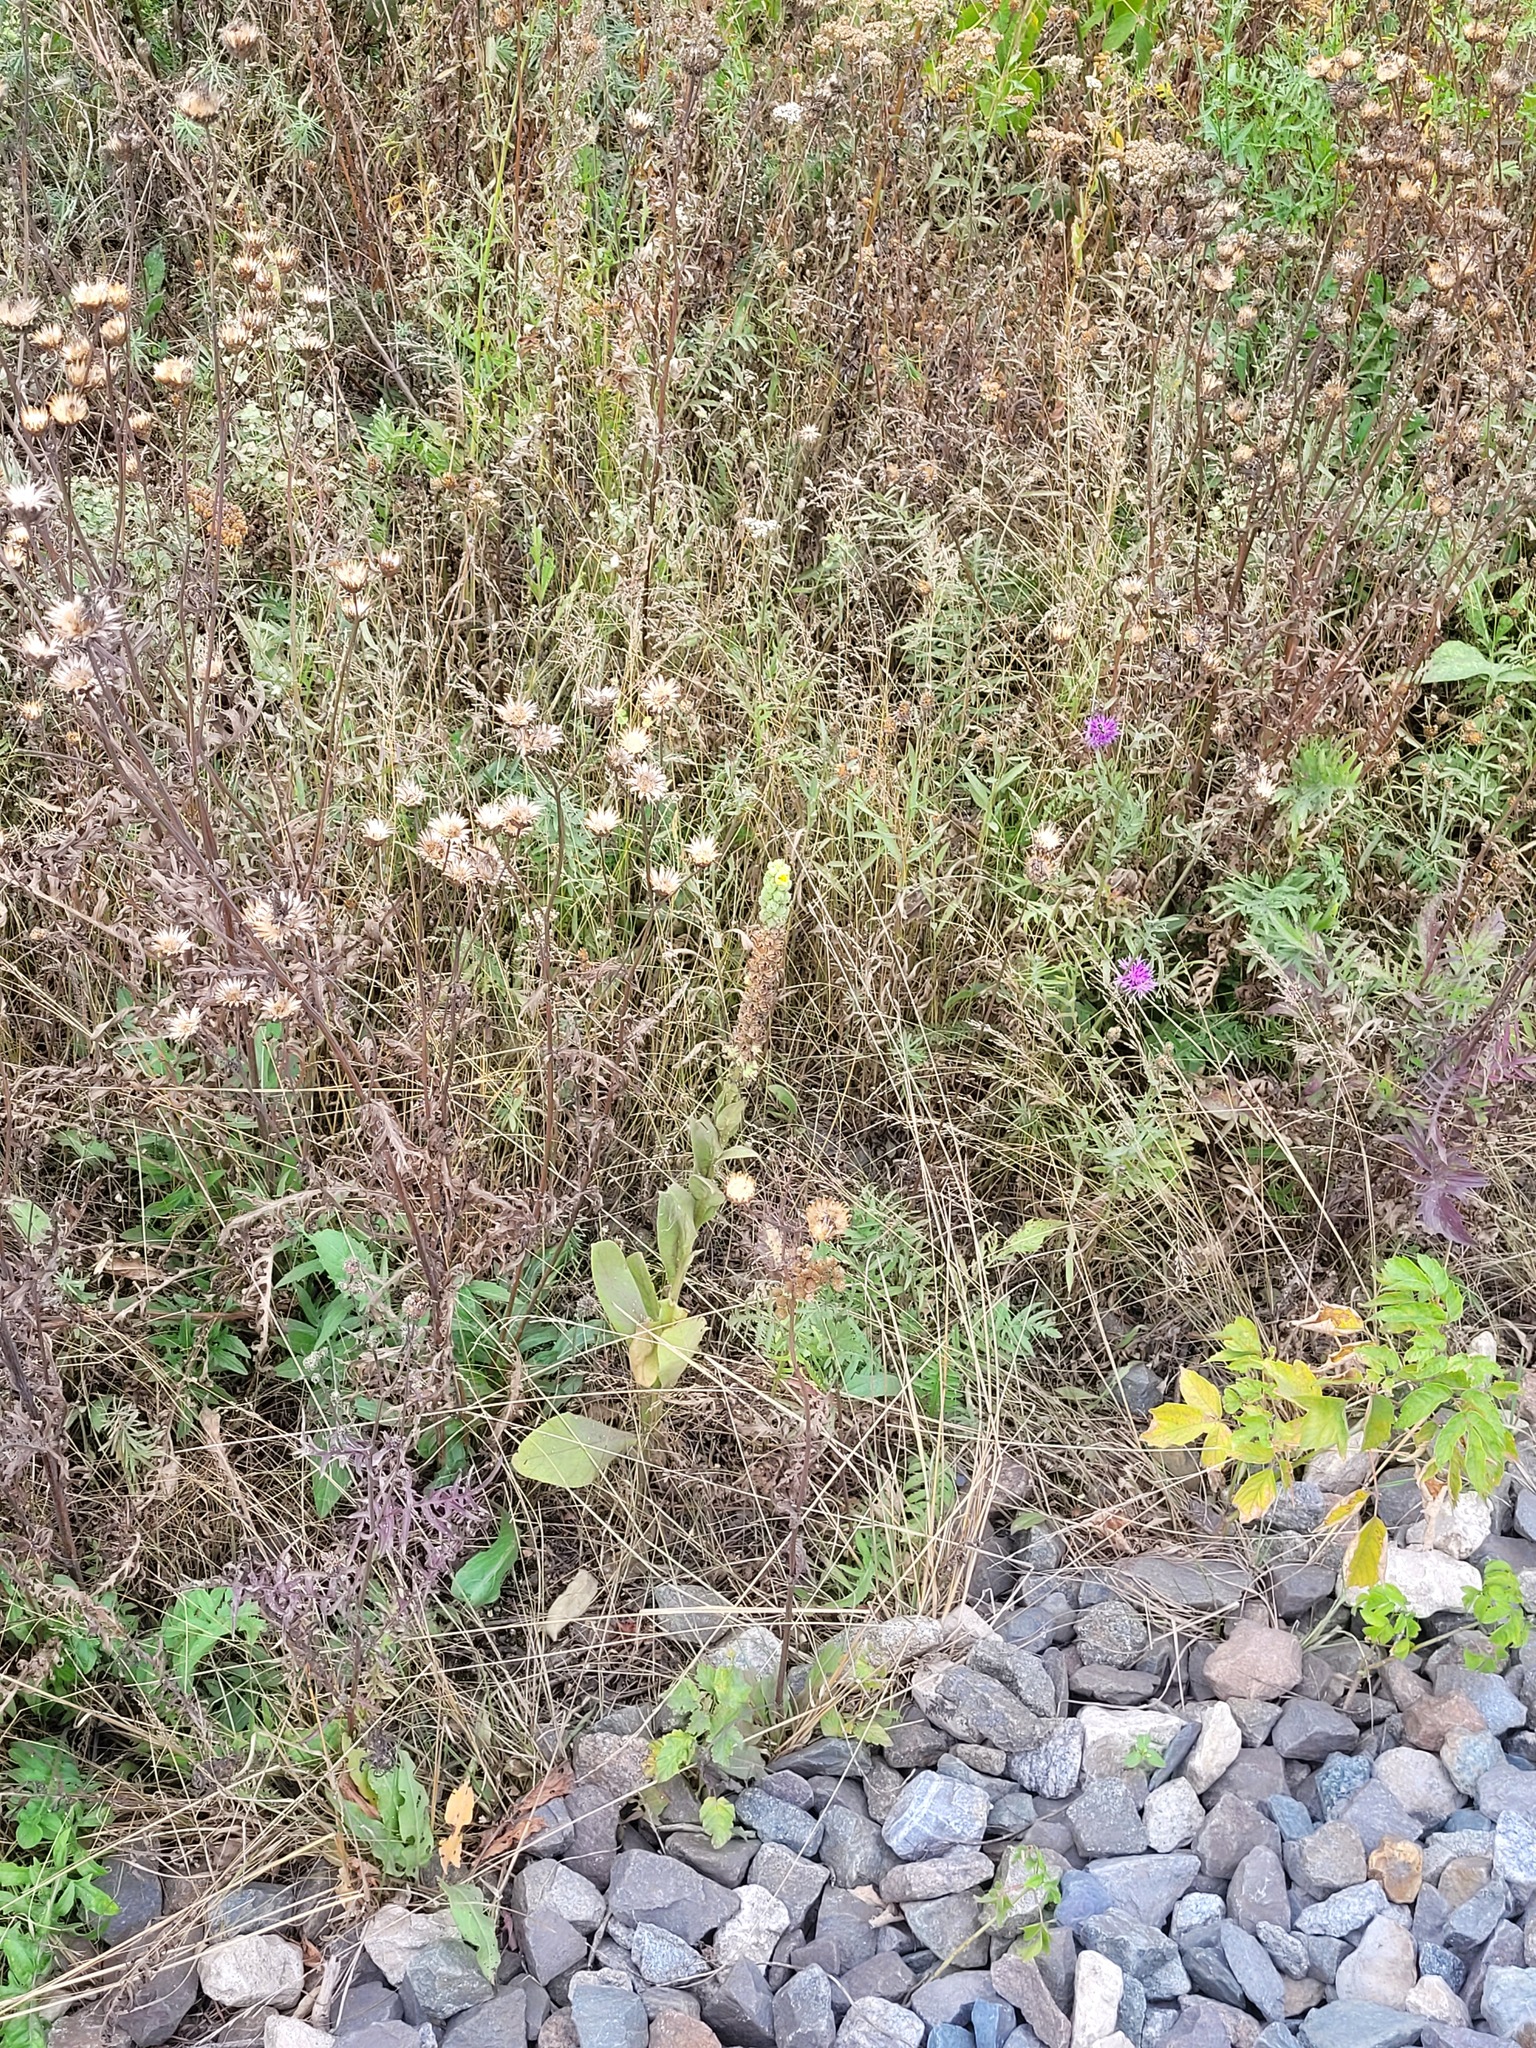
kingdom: Plantae
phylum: Tracheophyta
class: Magnoliopsida
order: Lamiales
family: Scrophulariaceae
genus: Verbascum
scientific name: Verbascum thapsus
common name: Common mullein
